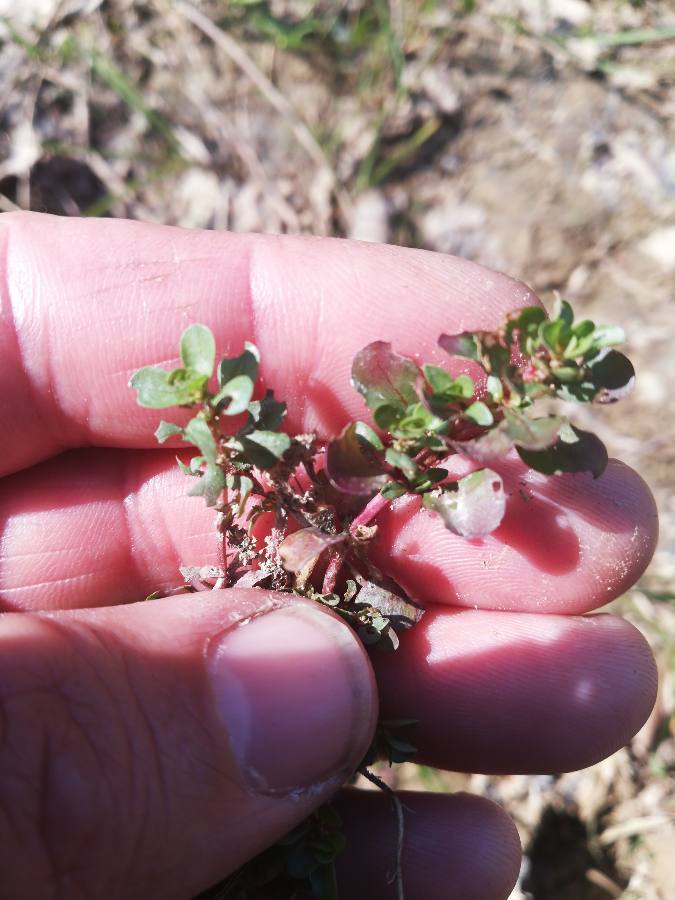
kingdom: Plantae
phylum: Tracheophyta
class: Magnoliopsida
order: Myrtales
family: Lythraceae
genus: Lythrum
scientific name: Lythrum portula
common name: Water purslane
